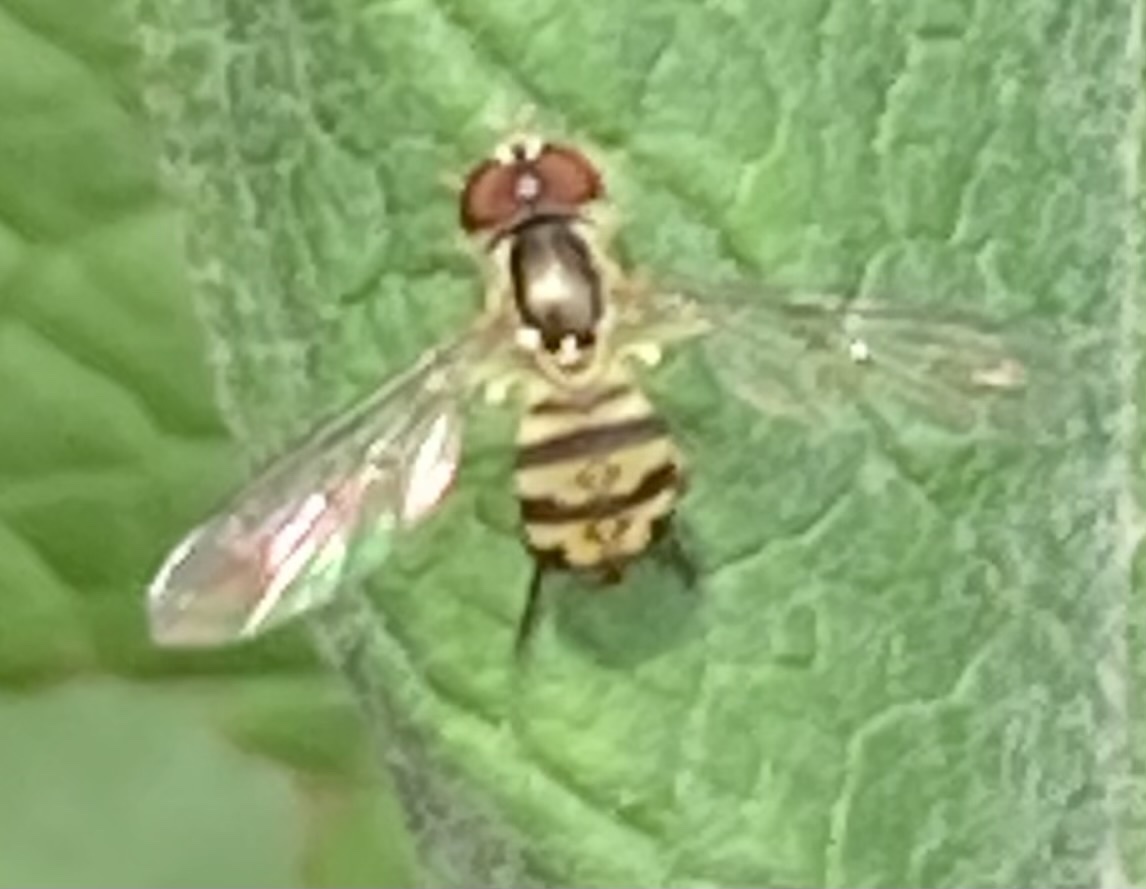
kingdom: Animalia
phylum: Arthropoda
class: Insecta
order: Diptera
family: Syrphidae
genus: Toxomerus
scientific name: Toxomerus geminatus
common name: Eastern calligrapher
